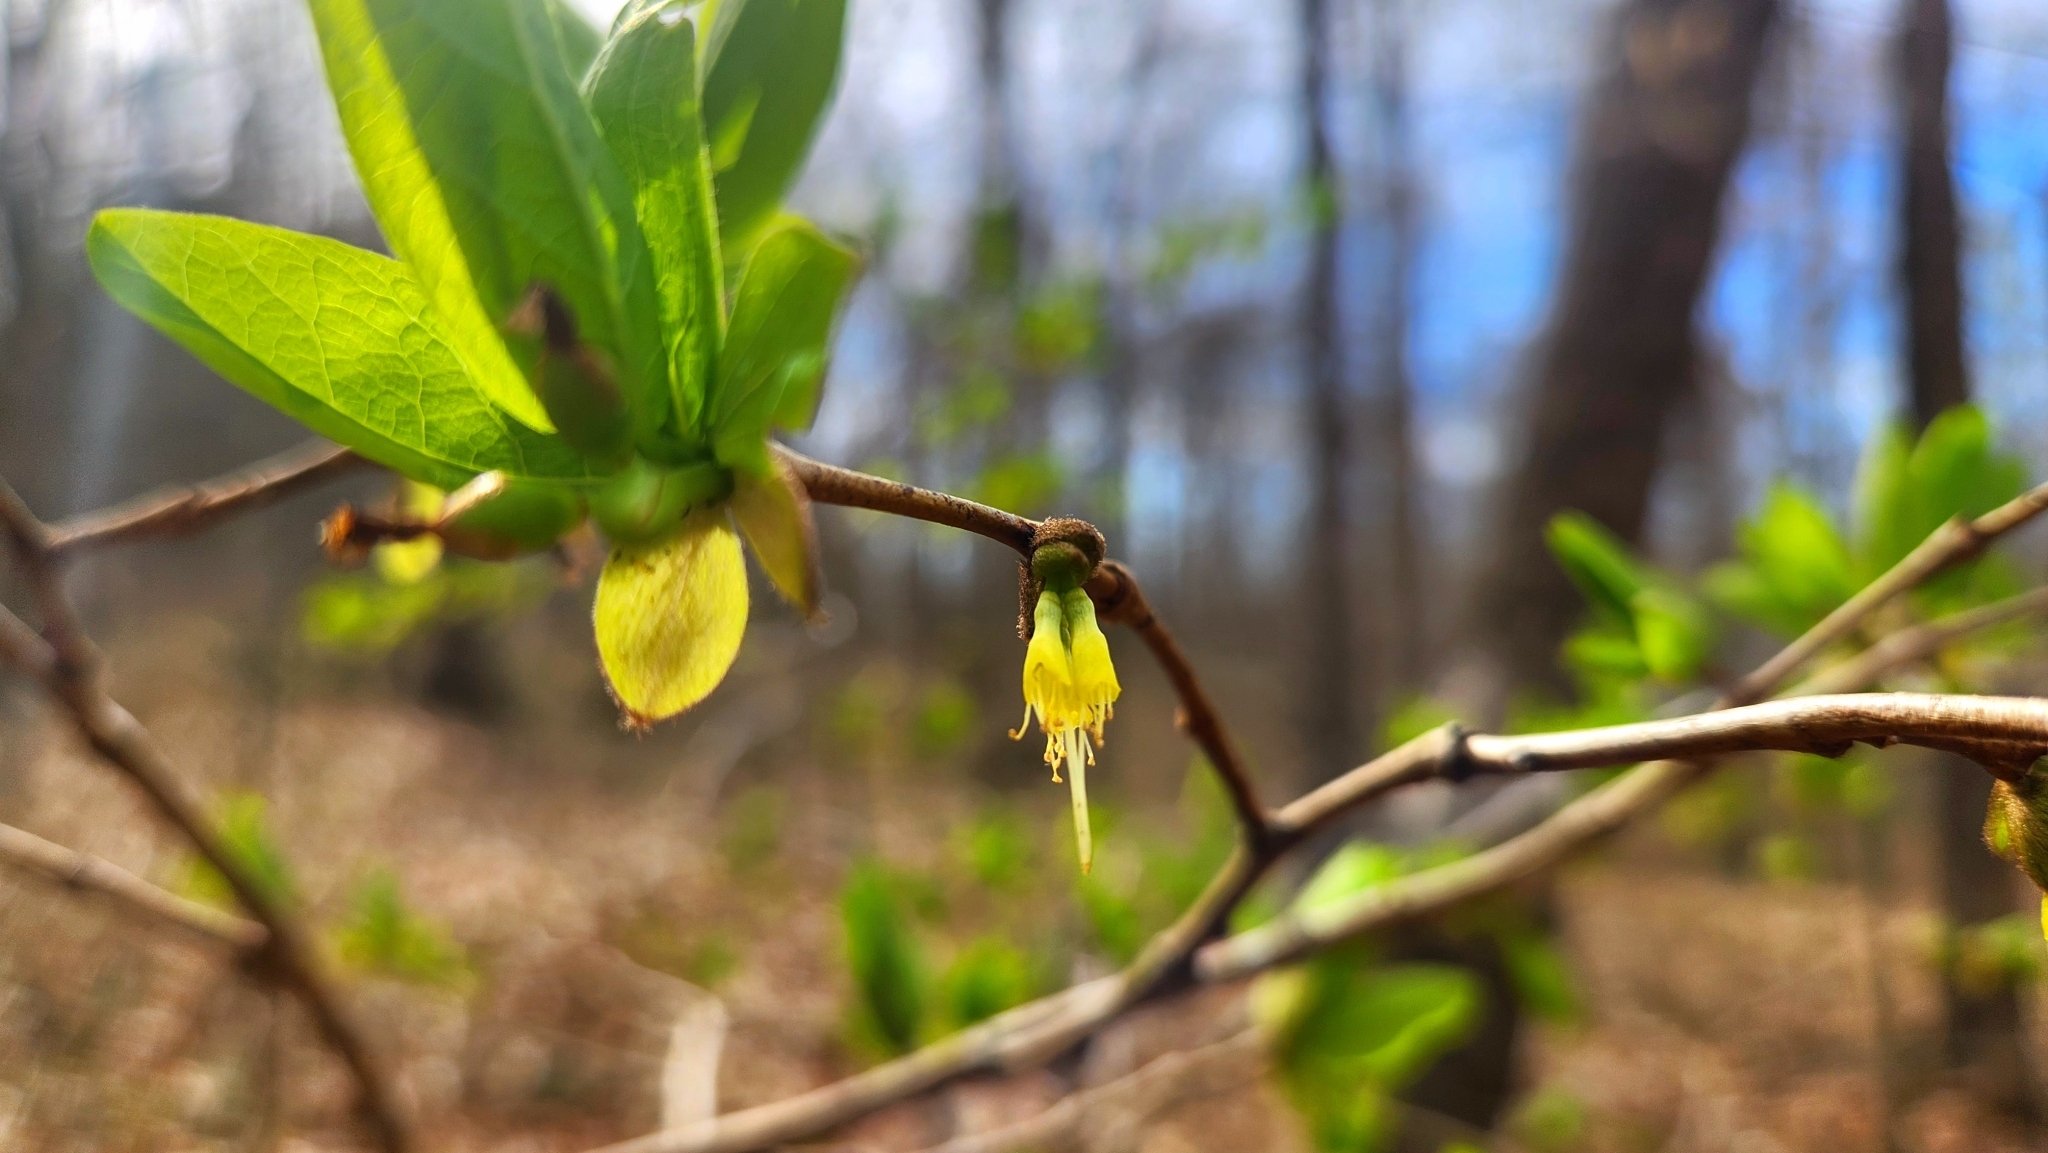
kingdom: Plantae
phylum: Tracheophyta
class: Magnoliopsida
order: Malvales
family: Thymelaeaceae
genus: Dirca
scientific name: Dirca palustris
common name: Leatherwood
